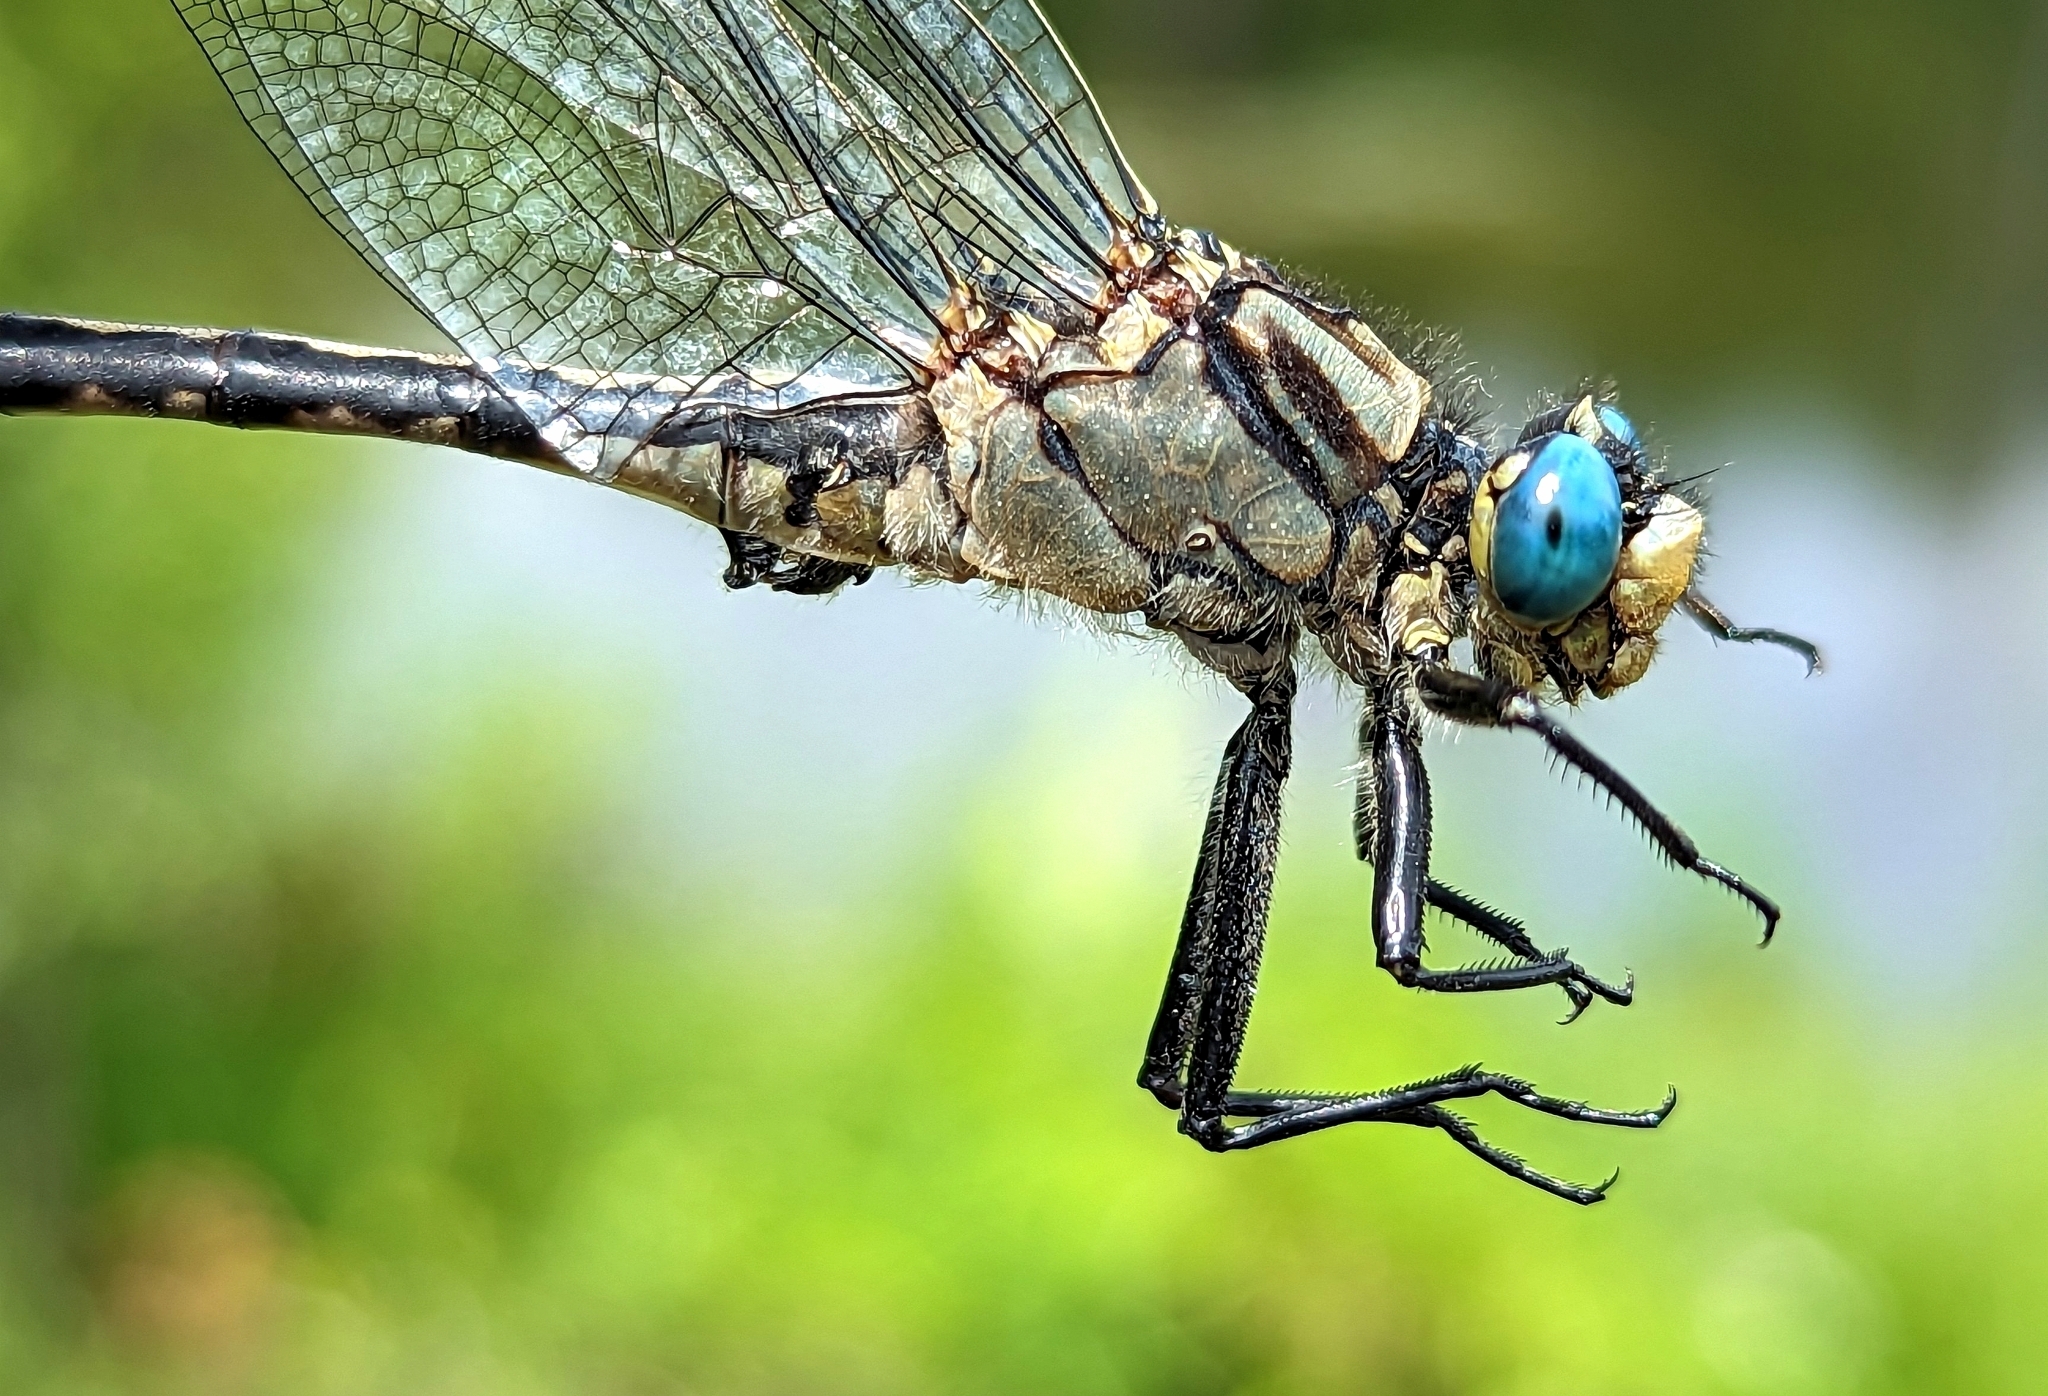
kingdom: Animalia
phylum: Arthropoda
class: Insecta
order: Odonata
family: Gomphidae
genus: Arigomphus
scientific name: Arigomphus cornutus
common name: Horned clubtail
